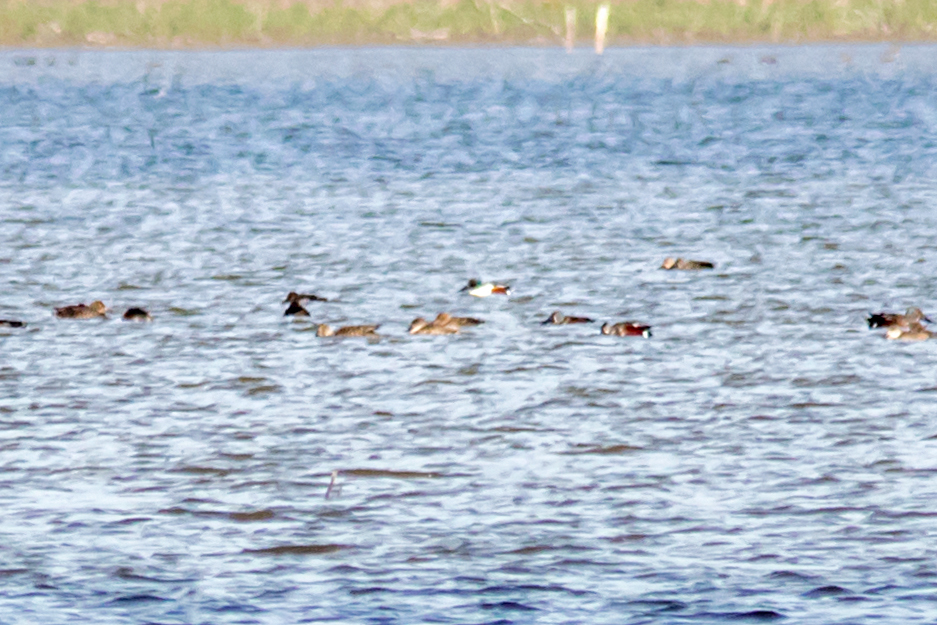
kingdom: Animalia
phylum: Chordata
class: Aves
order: Anseriformes
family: Anatidae
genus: Spatula
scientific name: Spatula clypeata
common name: Northern shoveler
